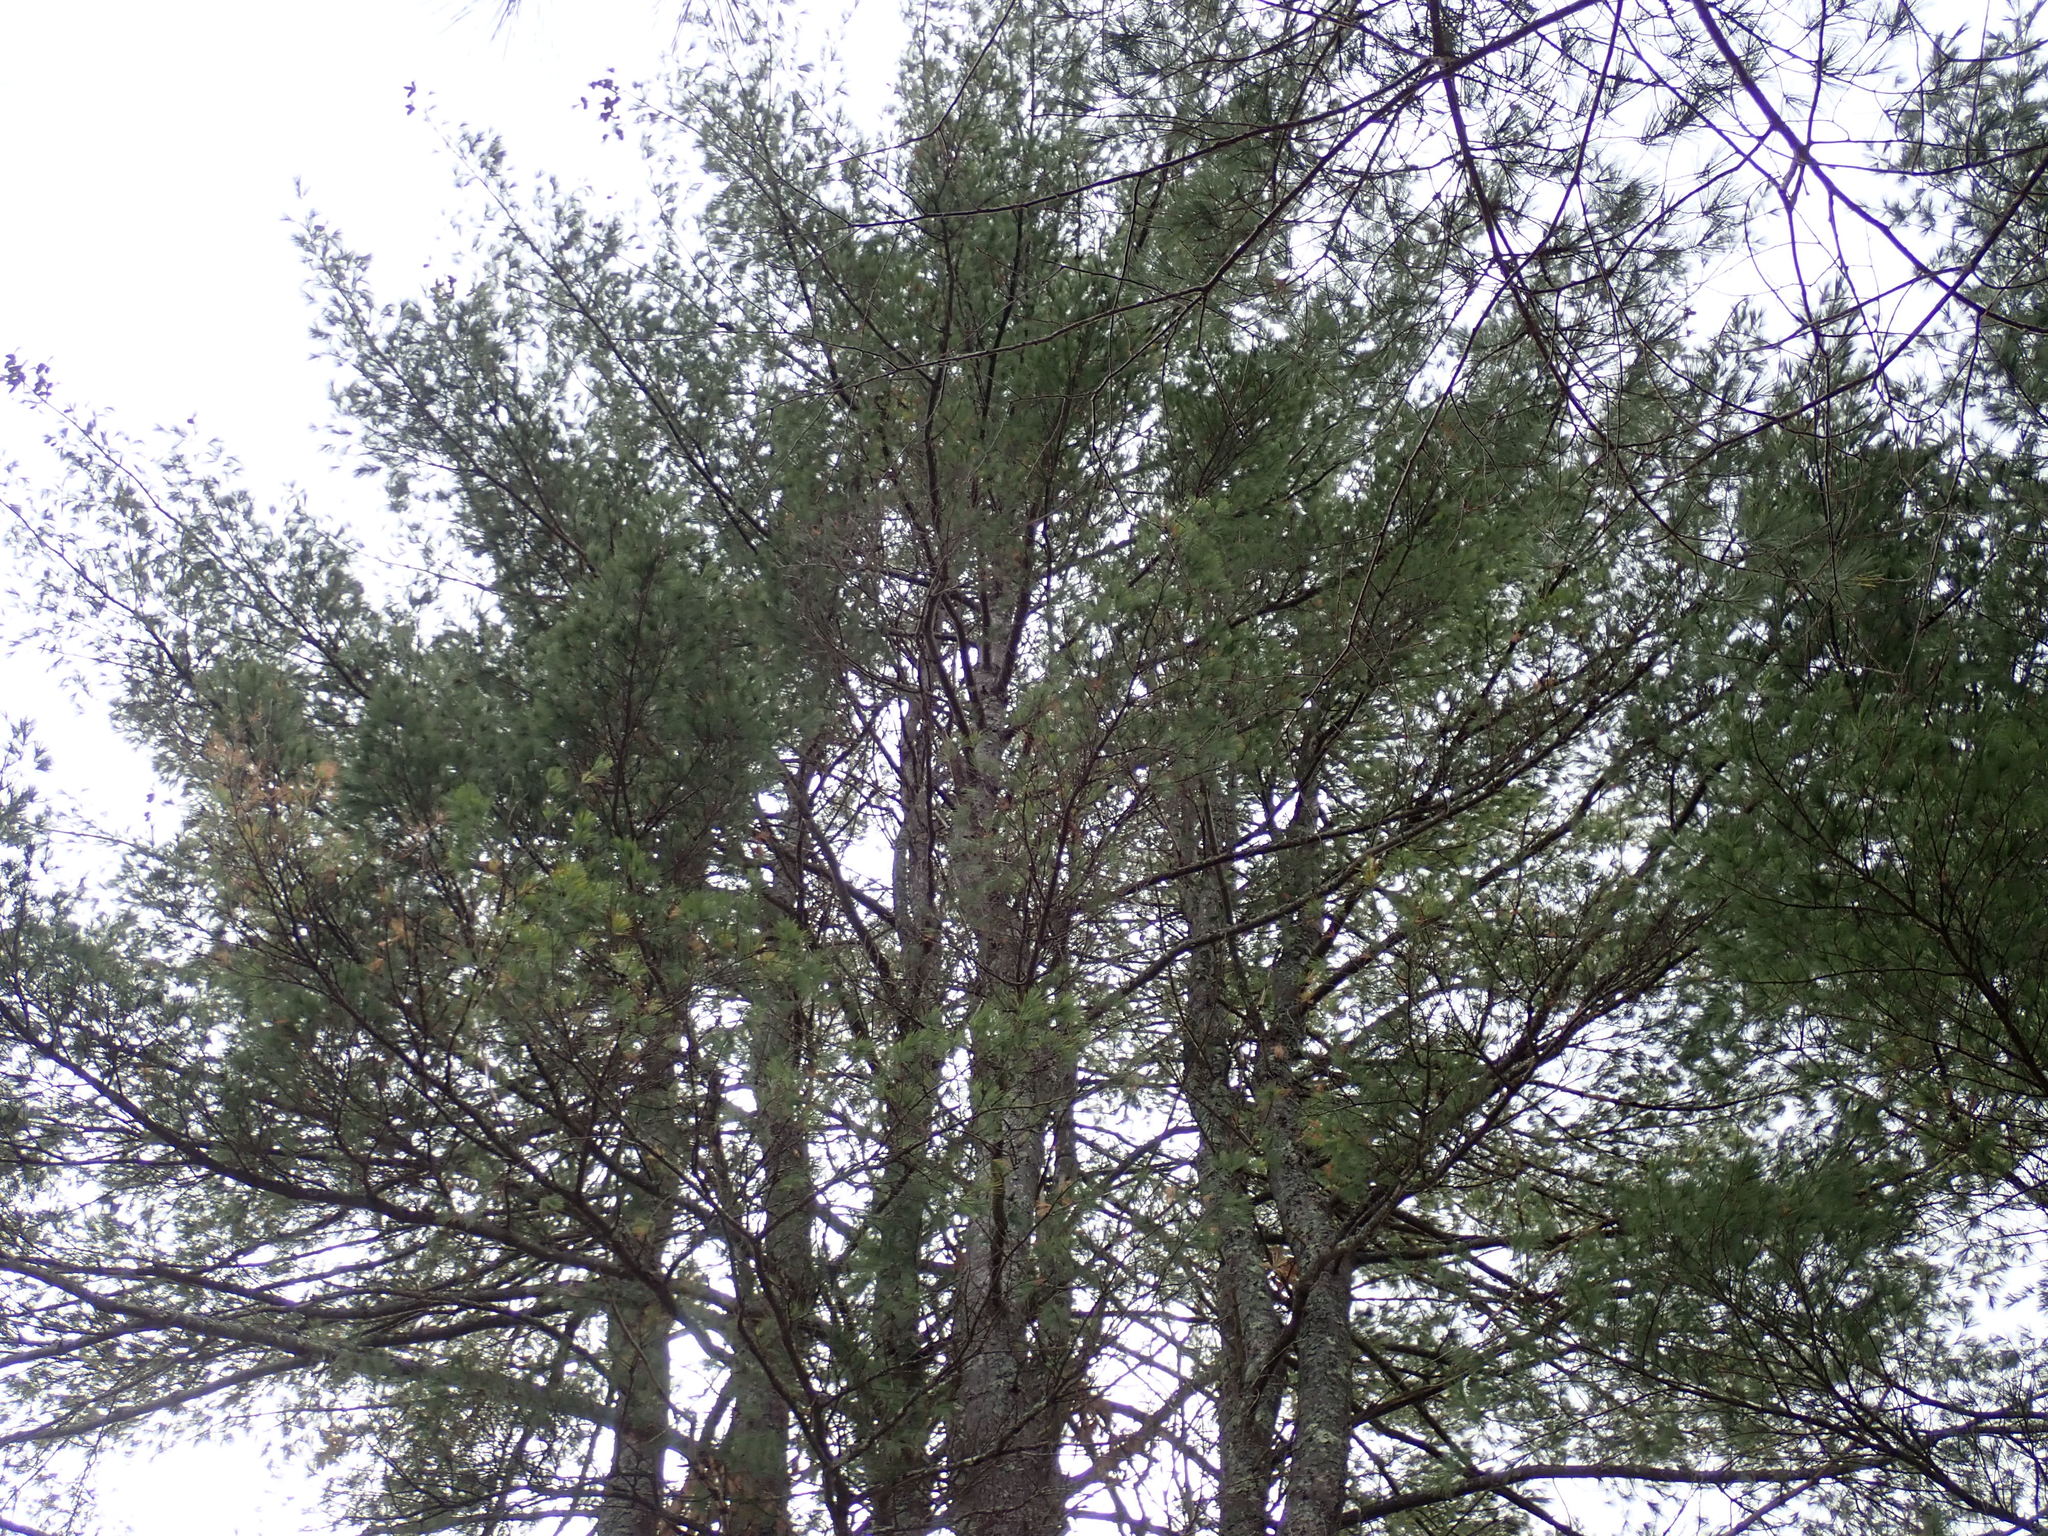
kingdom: Plantae
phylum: Tracheophyta
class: Pinopsida
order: Pinales
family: Pinaceae
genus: Pinus
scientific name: Pinus strobus
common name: Weymouth pine
